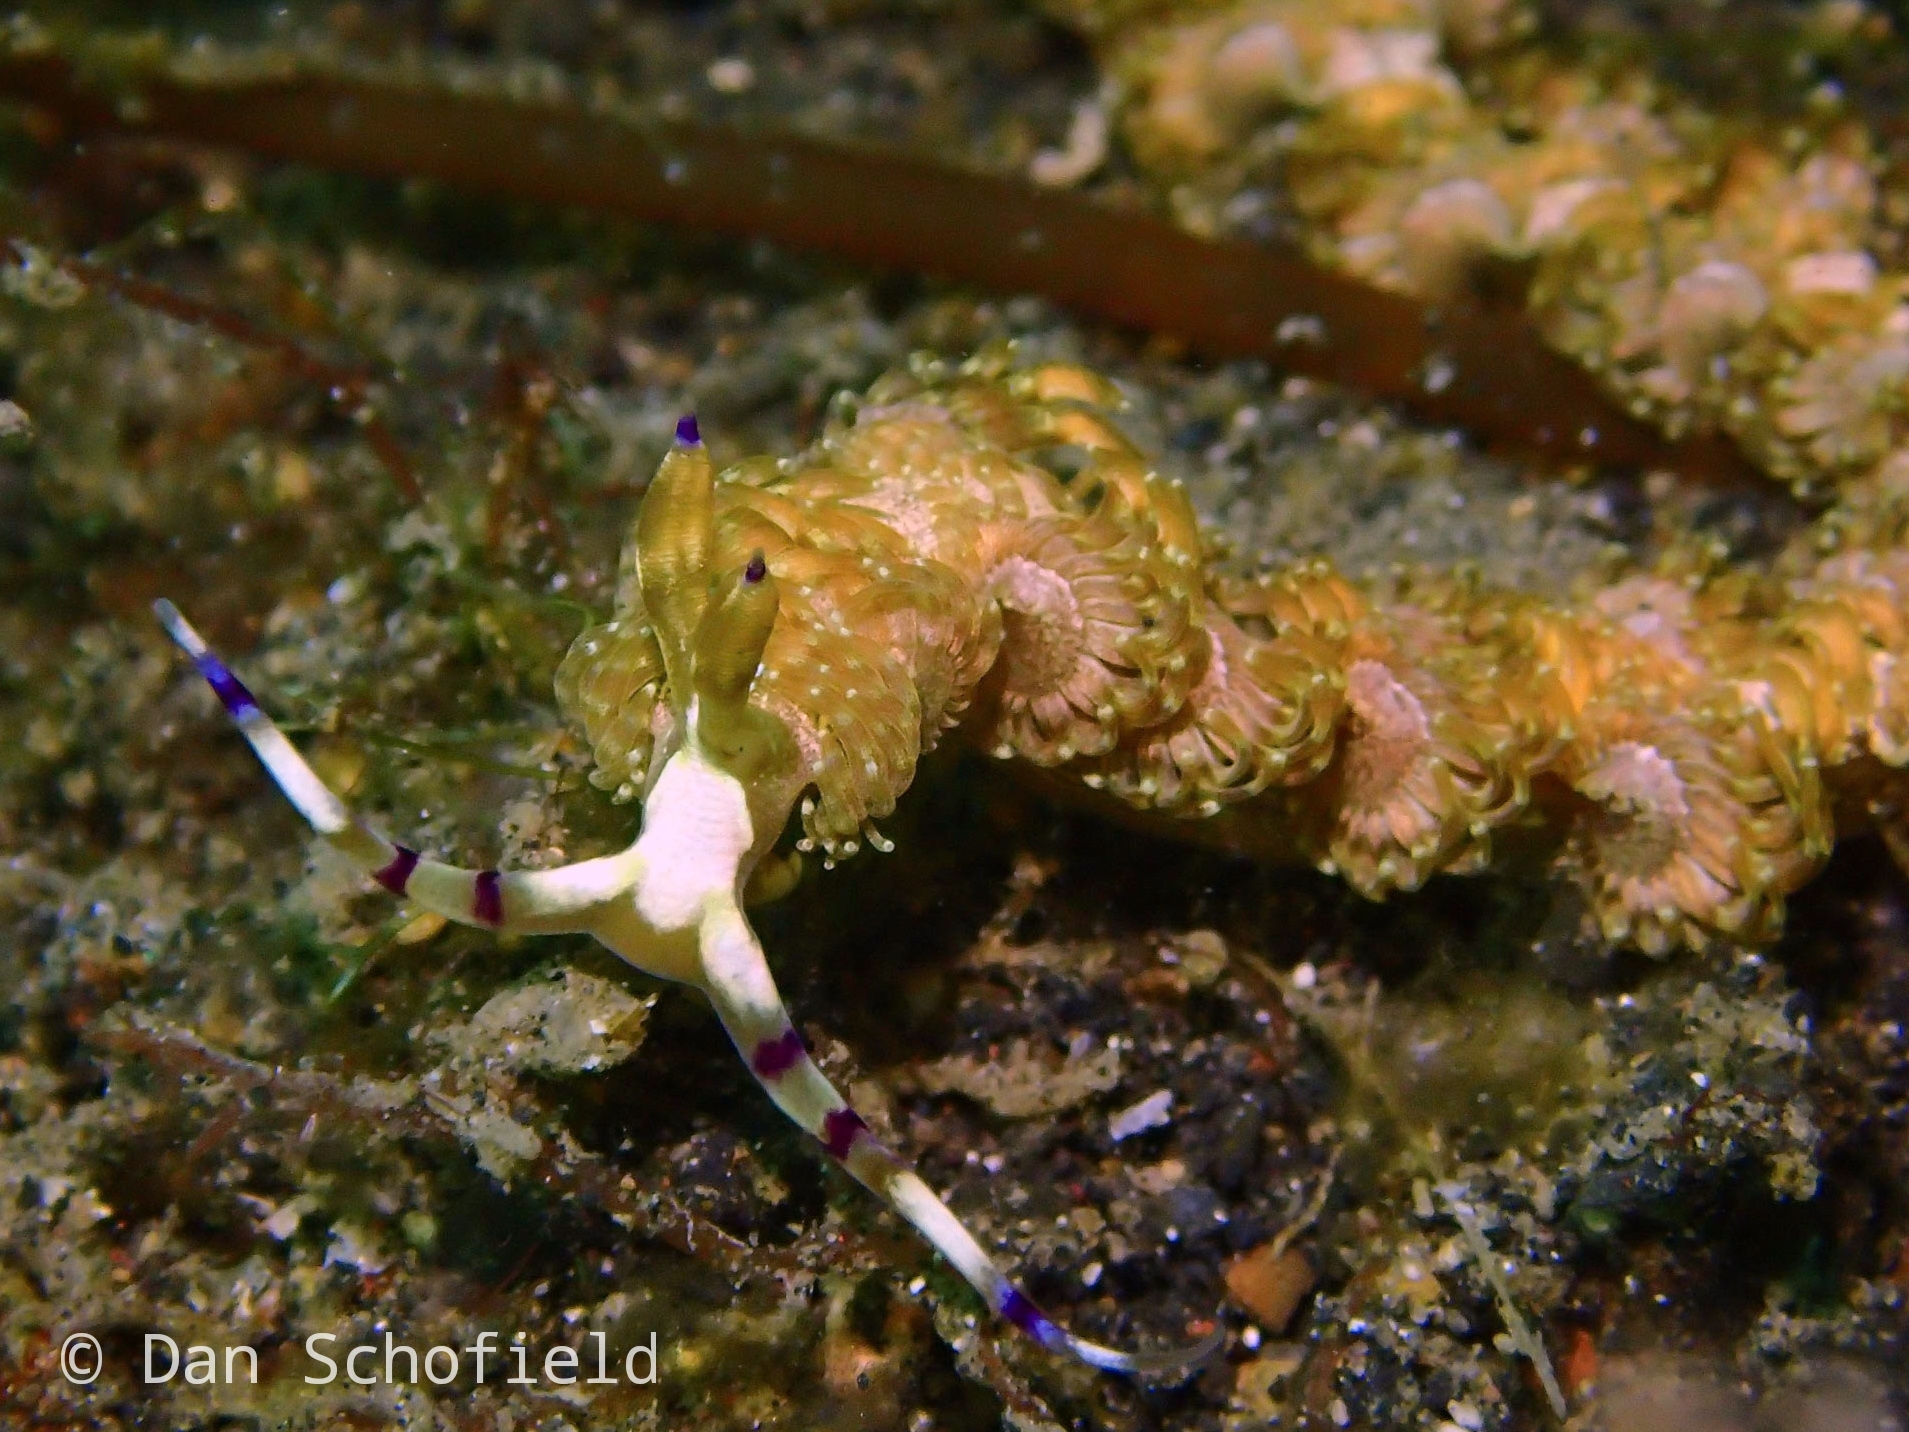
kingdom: Animalia
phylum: Mollusca
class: Gastropoda
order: Nudibranchia
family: Facelinidae
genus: Pteraeolidia
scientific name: Pteraeolidia semperi
